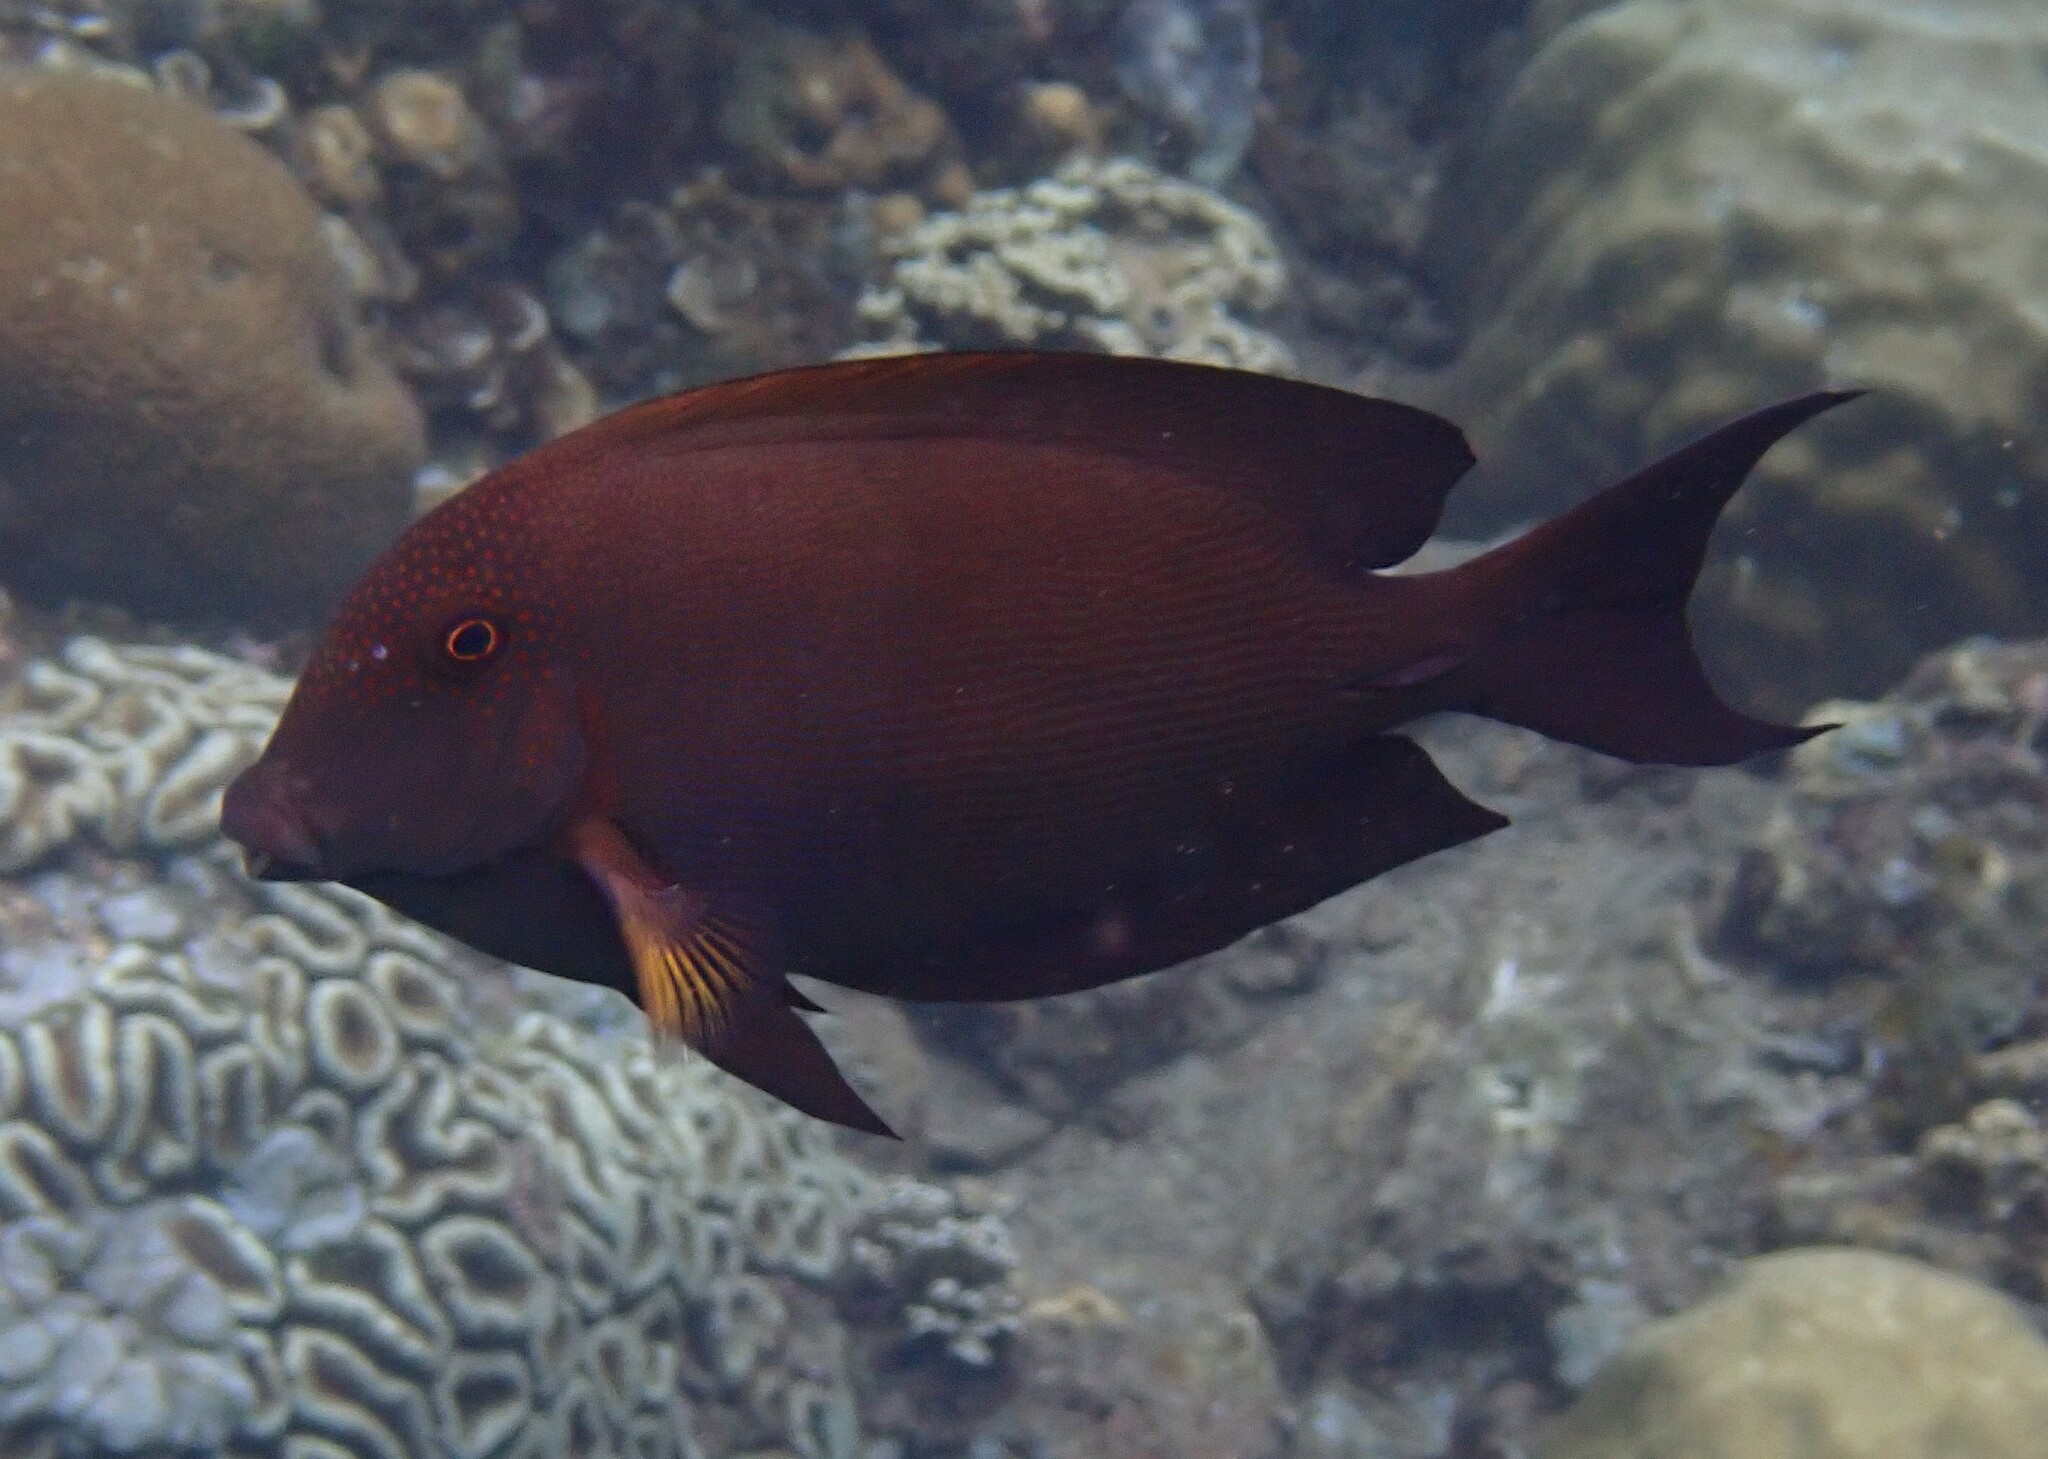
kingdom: Animalia
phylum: Chordata
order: Perciformes
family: Acanthuridae
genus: Ctenochaetus
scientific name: Ctenochaetus striatus
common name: Bristle-toothed surgeonfish
